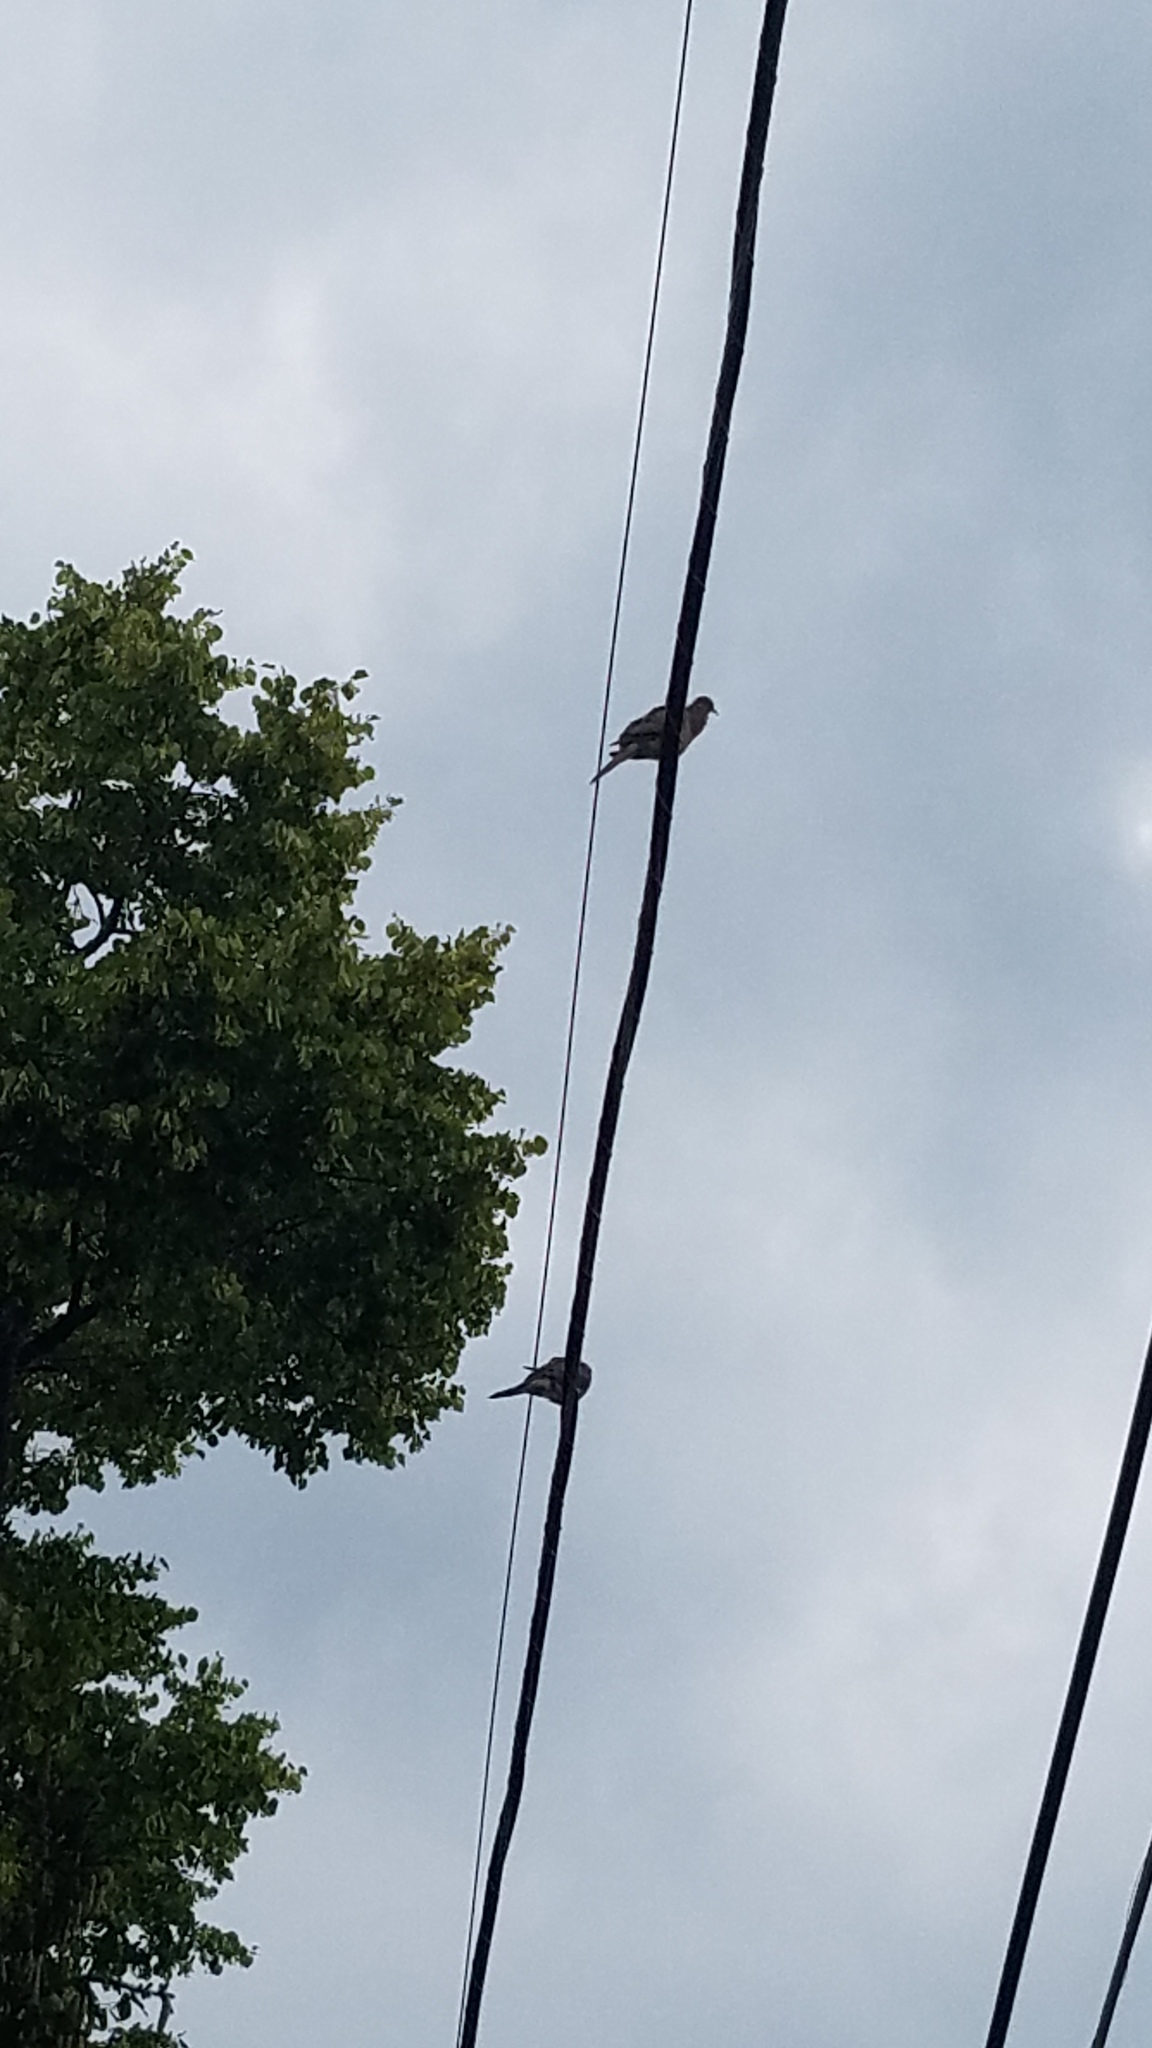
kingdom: Animalia
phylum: Chordata
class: Aves
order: Columbiformes
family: Columbidae
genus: Zenaida
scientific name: Zenaida macroura
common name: Mourning dove
